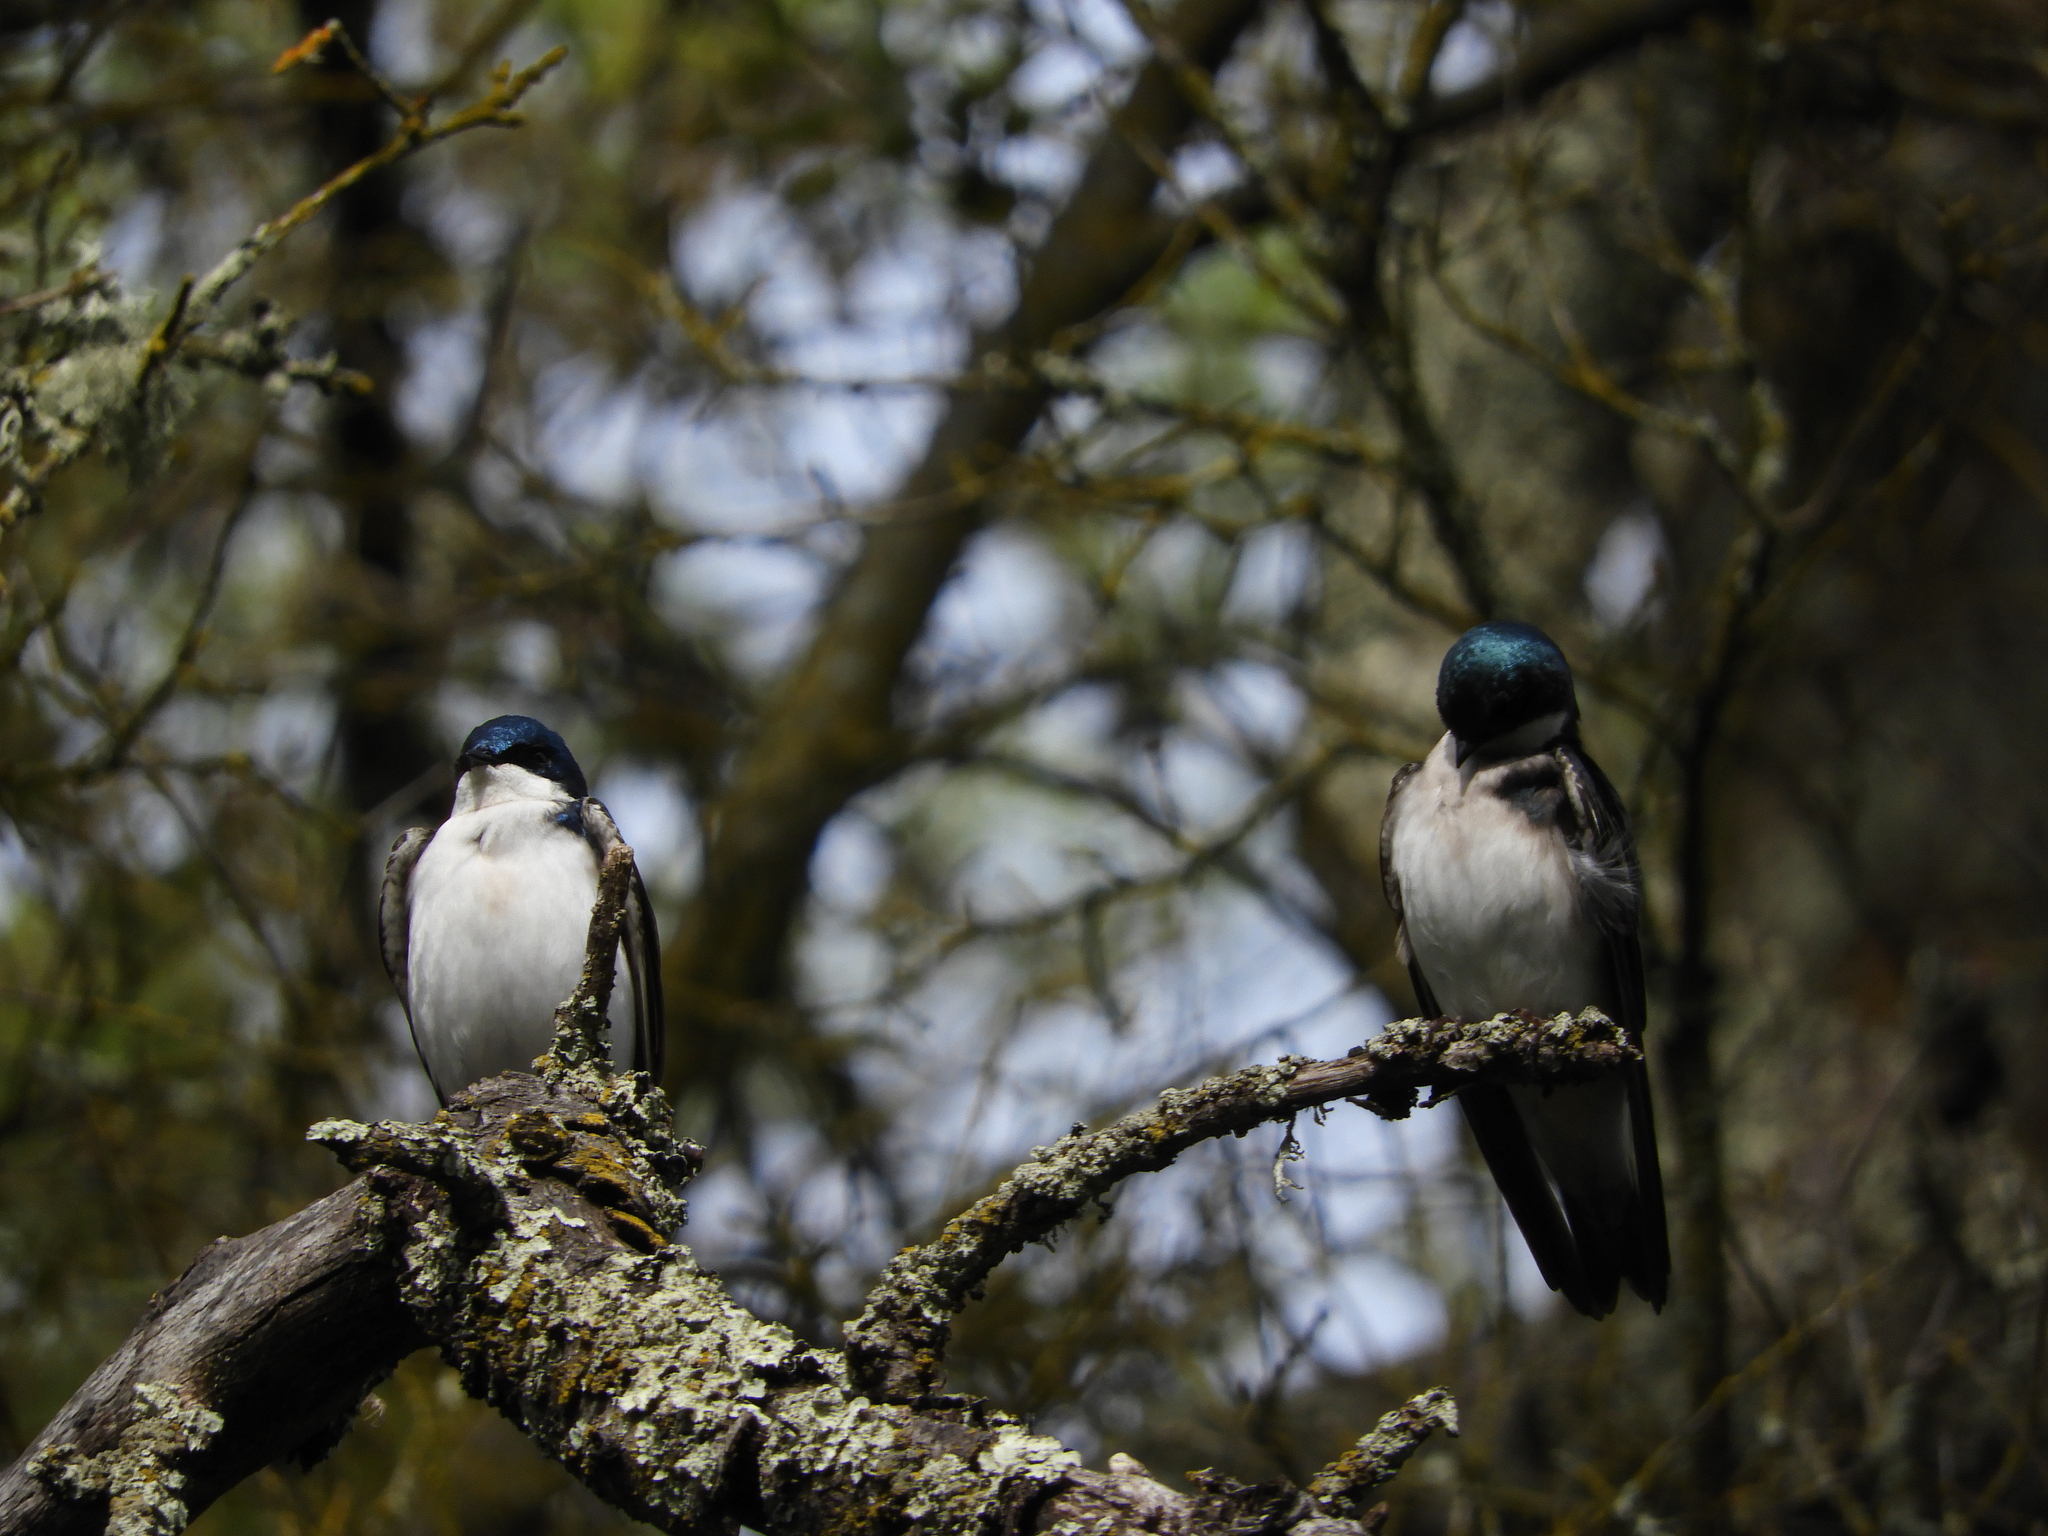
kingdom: Animalia
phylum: Chordata
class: Aves
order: Passeriformes
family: Hirundinidae
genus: Tachycineta
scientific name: Tachycineta bicolor
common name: Tree swallow
